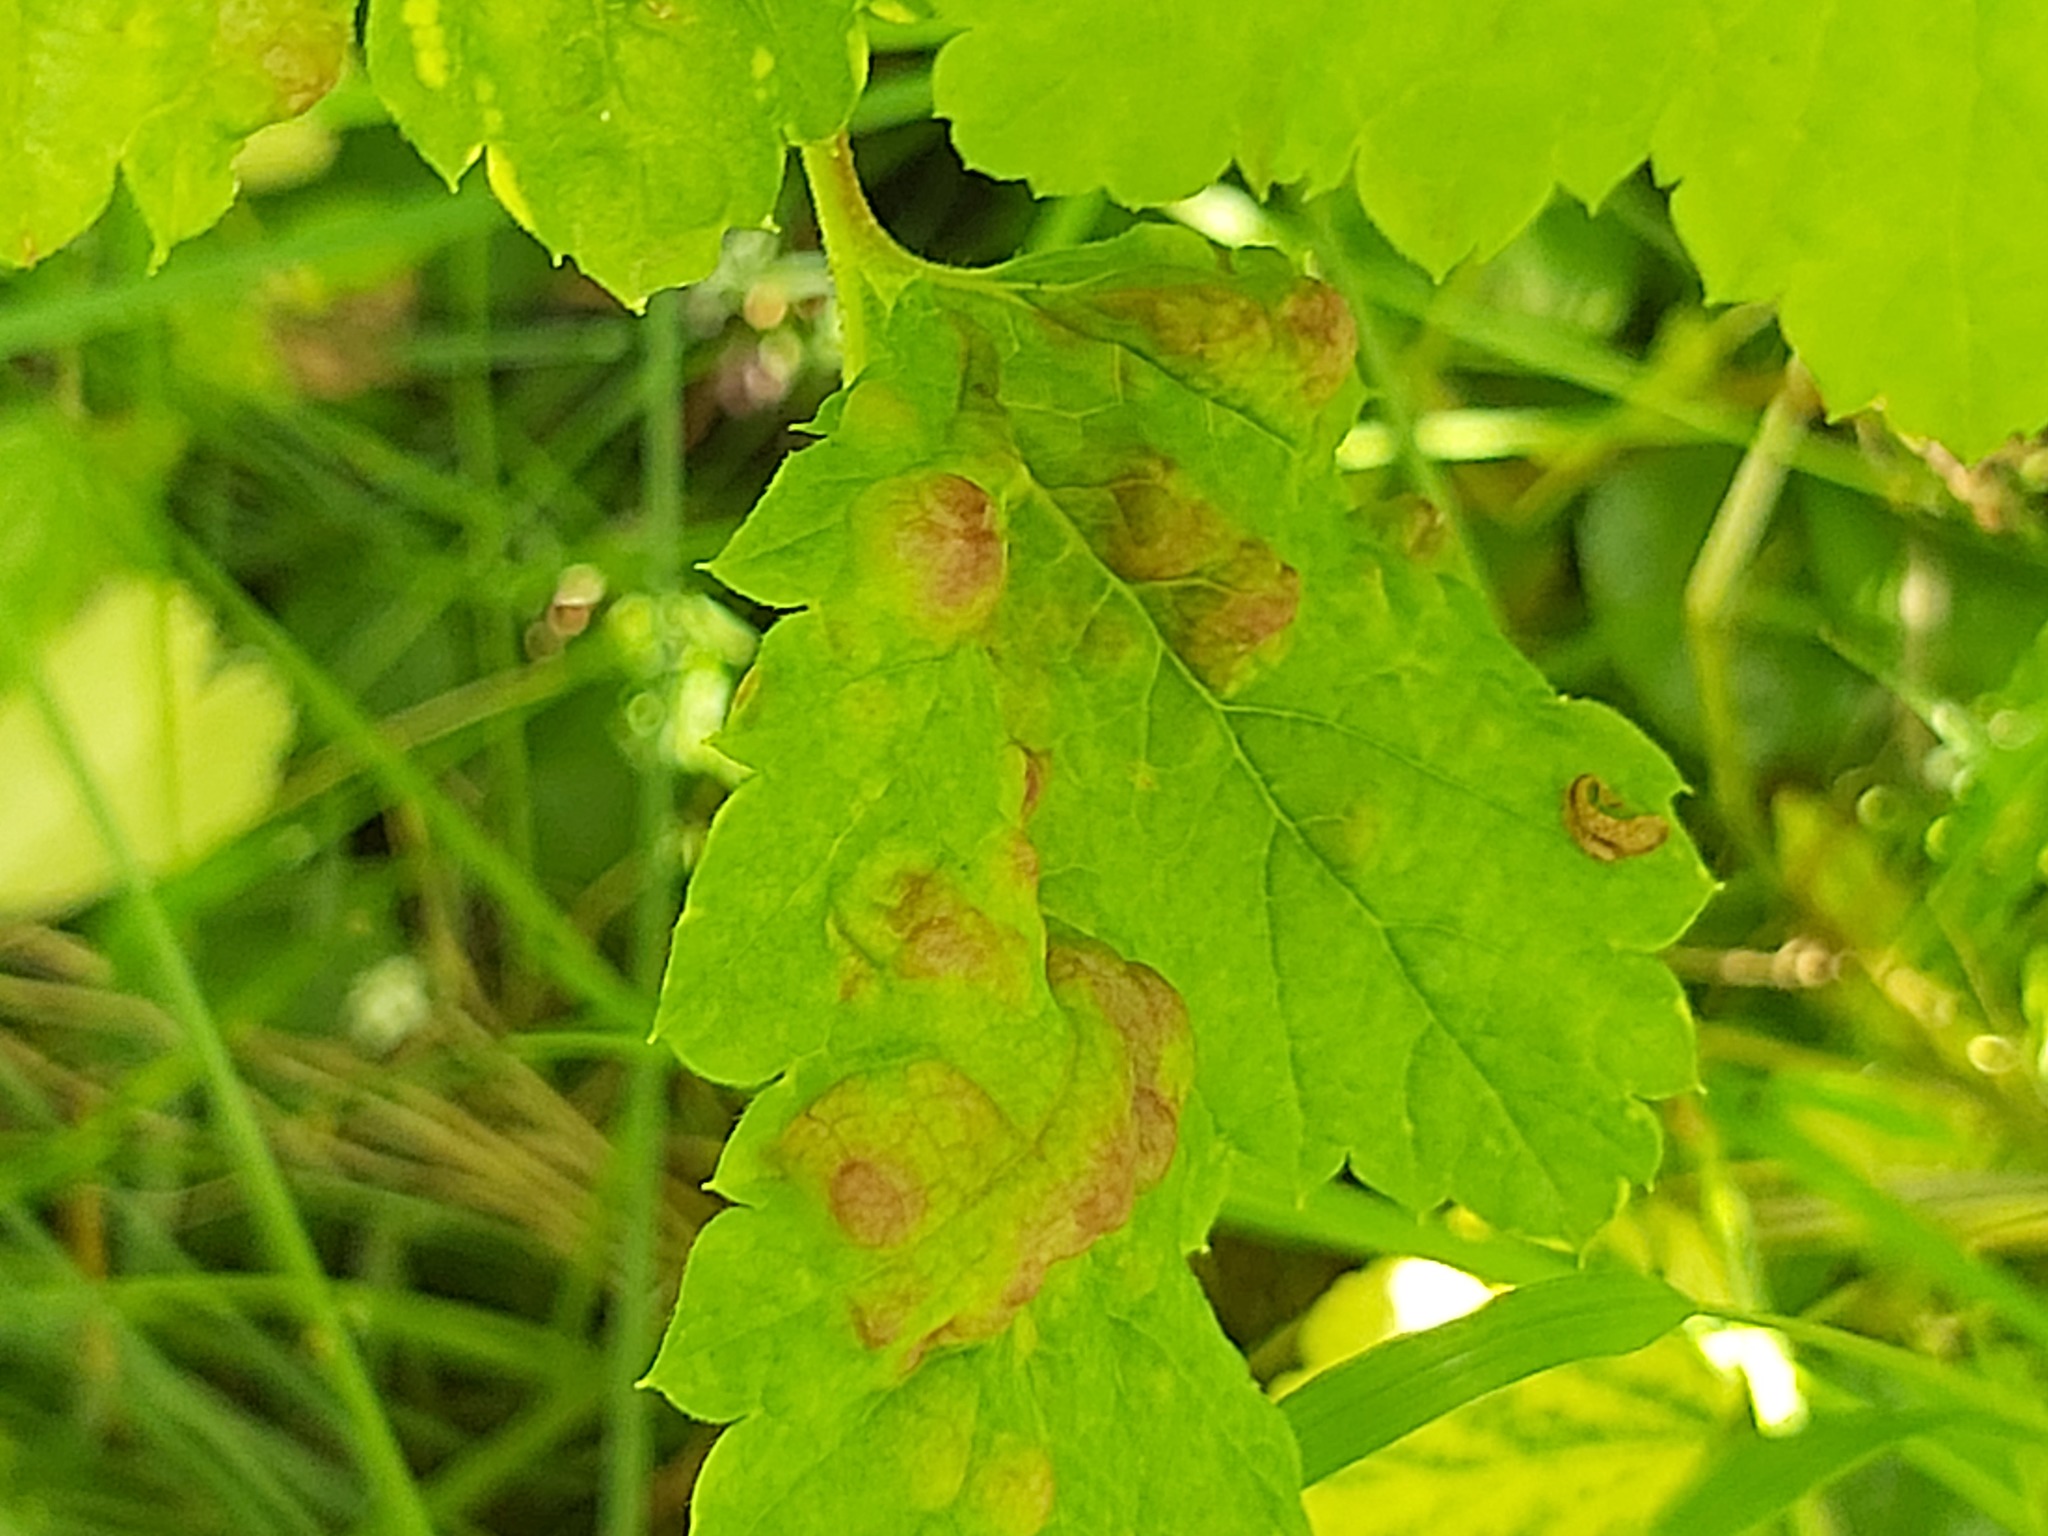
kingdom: Animalia
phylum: Arthropoda
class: Insecta
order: Hemiptera
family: Aphididae
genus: Cryptomyzus
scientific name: Cryptomyzus ribis
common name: Currant aphid
